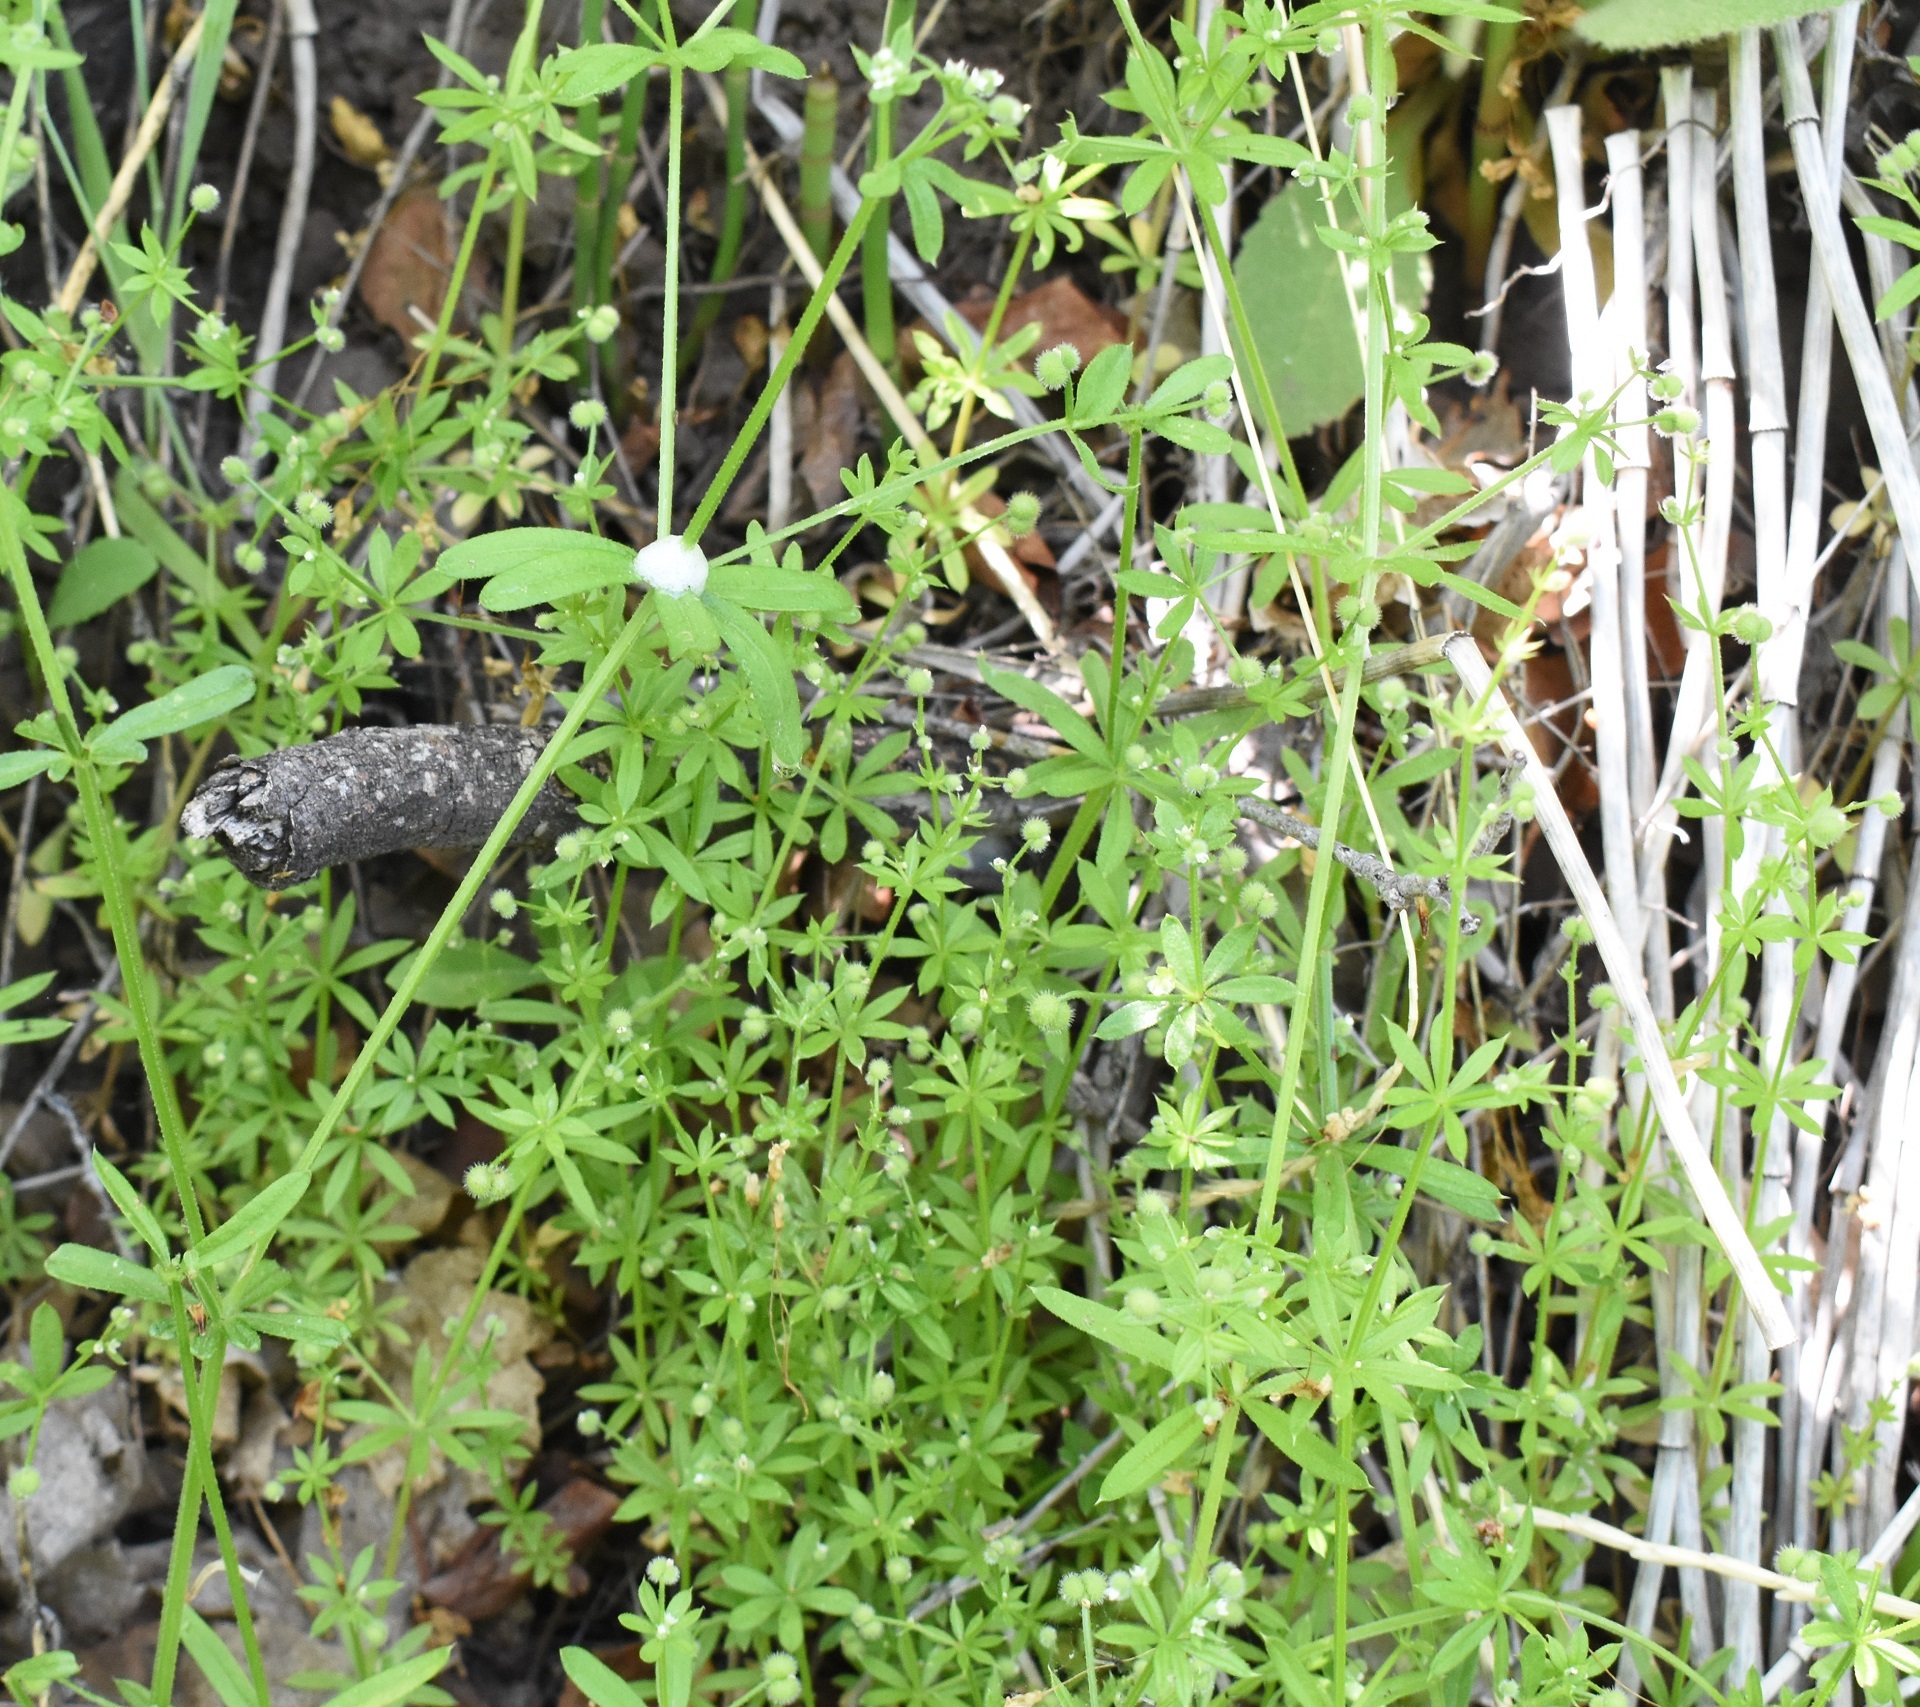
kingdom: Plantae
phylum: Tracheophyta
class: Magnoliopsida
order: Gentianales
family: Rubiaceae
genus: Galium
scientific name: Galium aparine
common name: Cleavers
